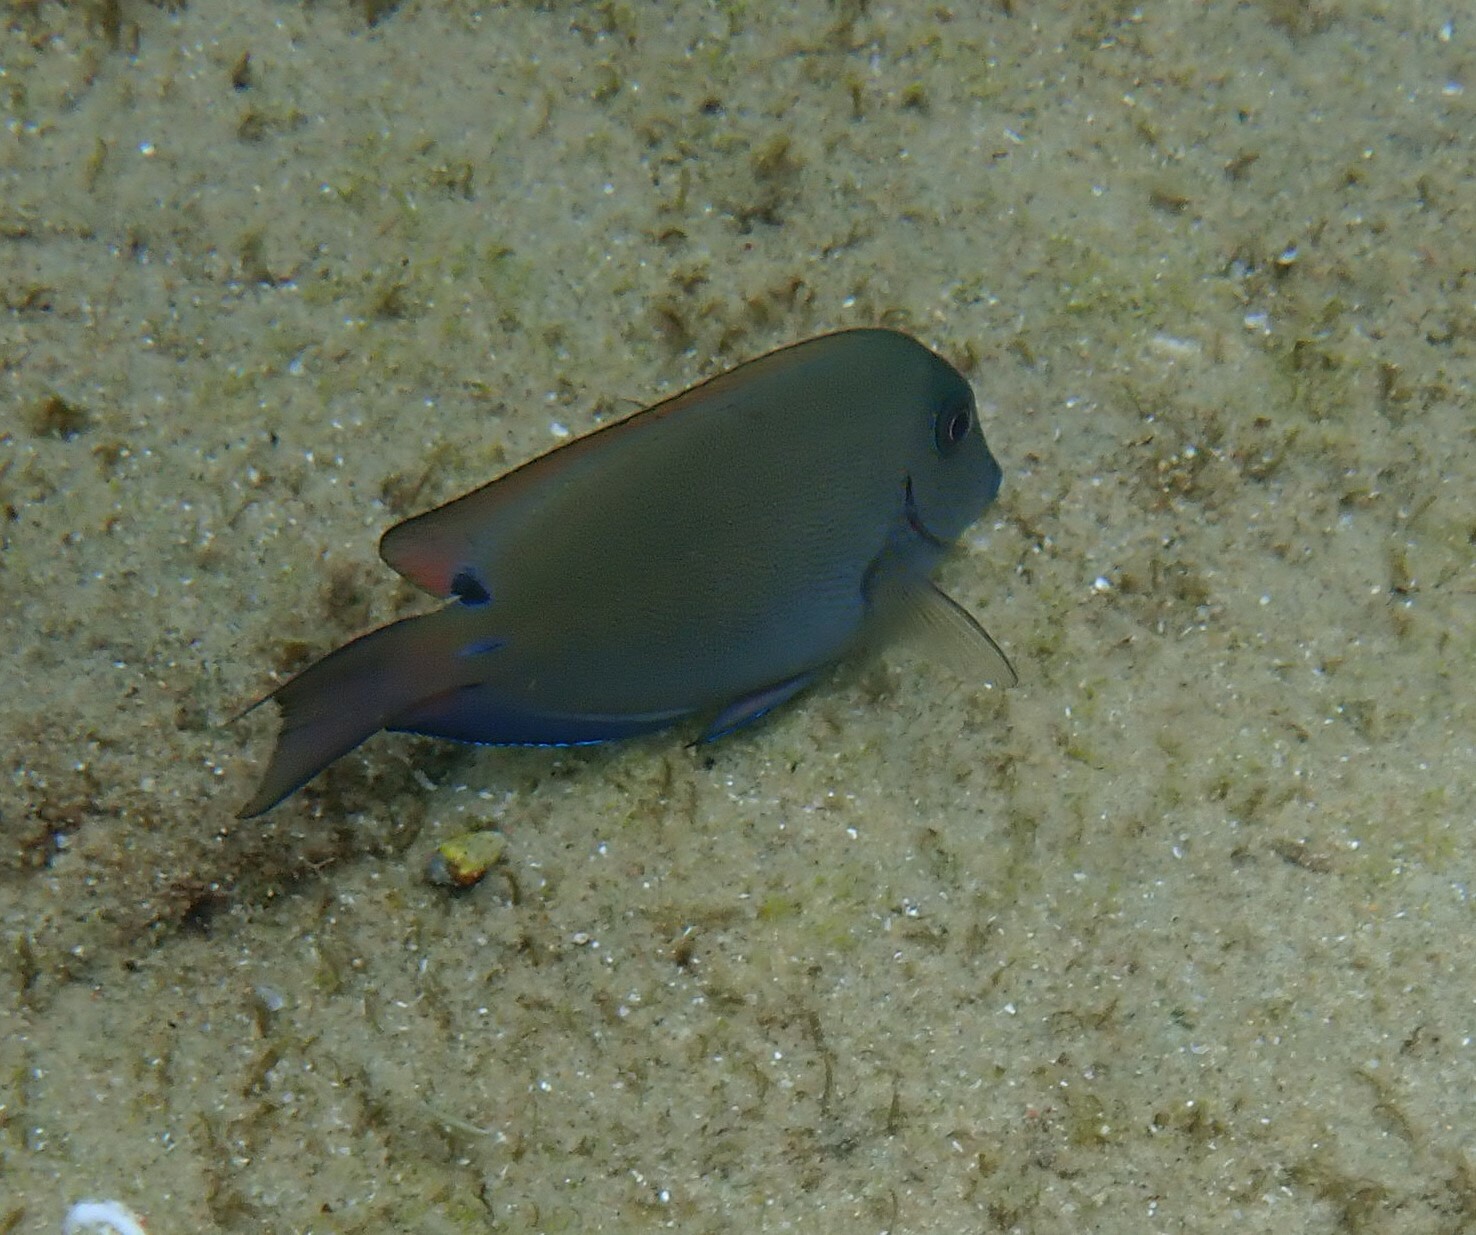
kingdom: Animalia
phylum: Chordata
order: Perciformes
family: Acanthuridae
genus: Acanthurus
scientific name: Acanthurus nigrofuscus
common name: Blackspot surgeonfish
